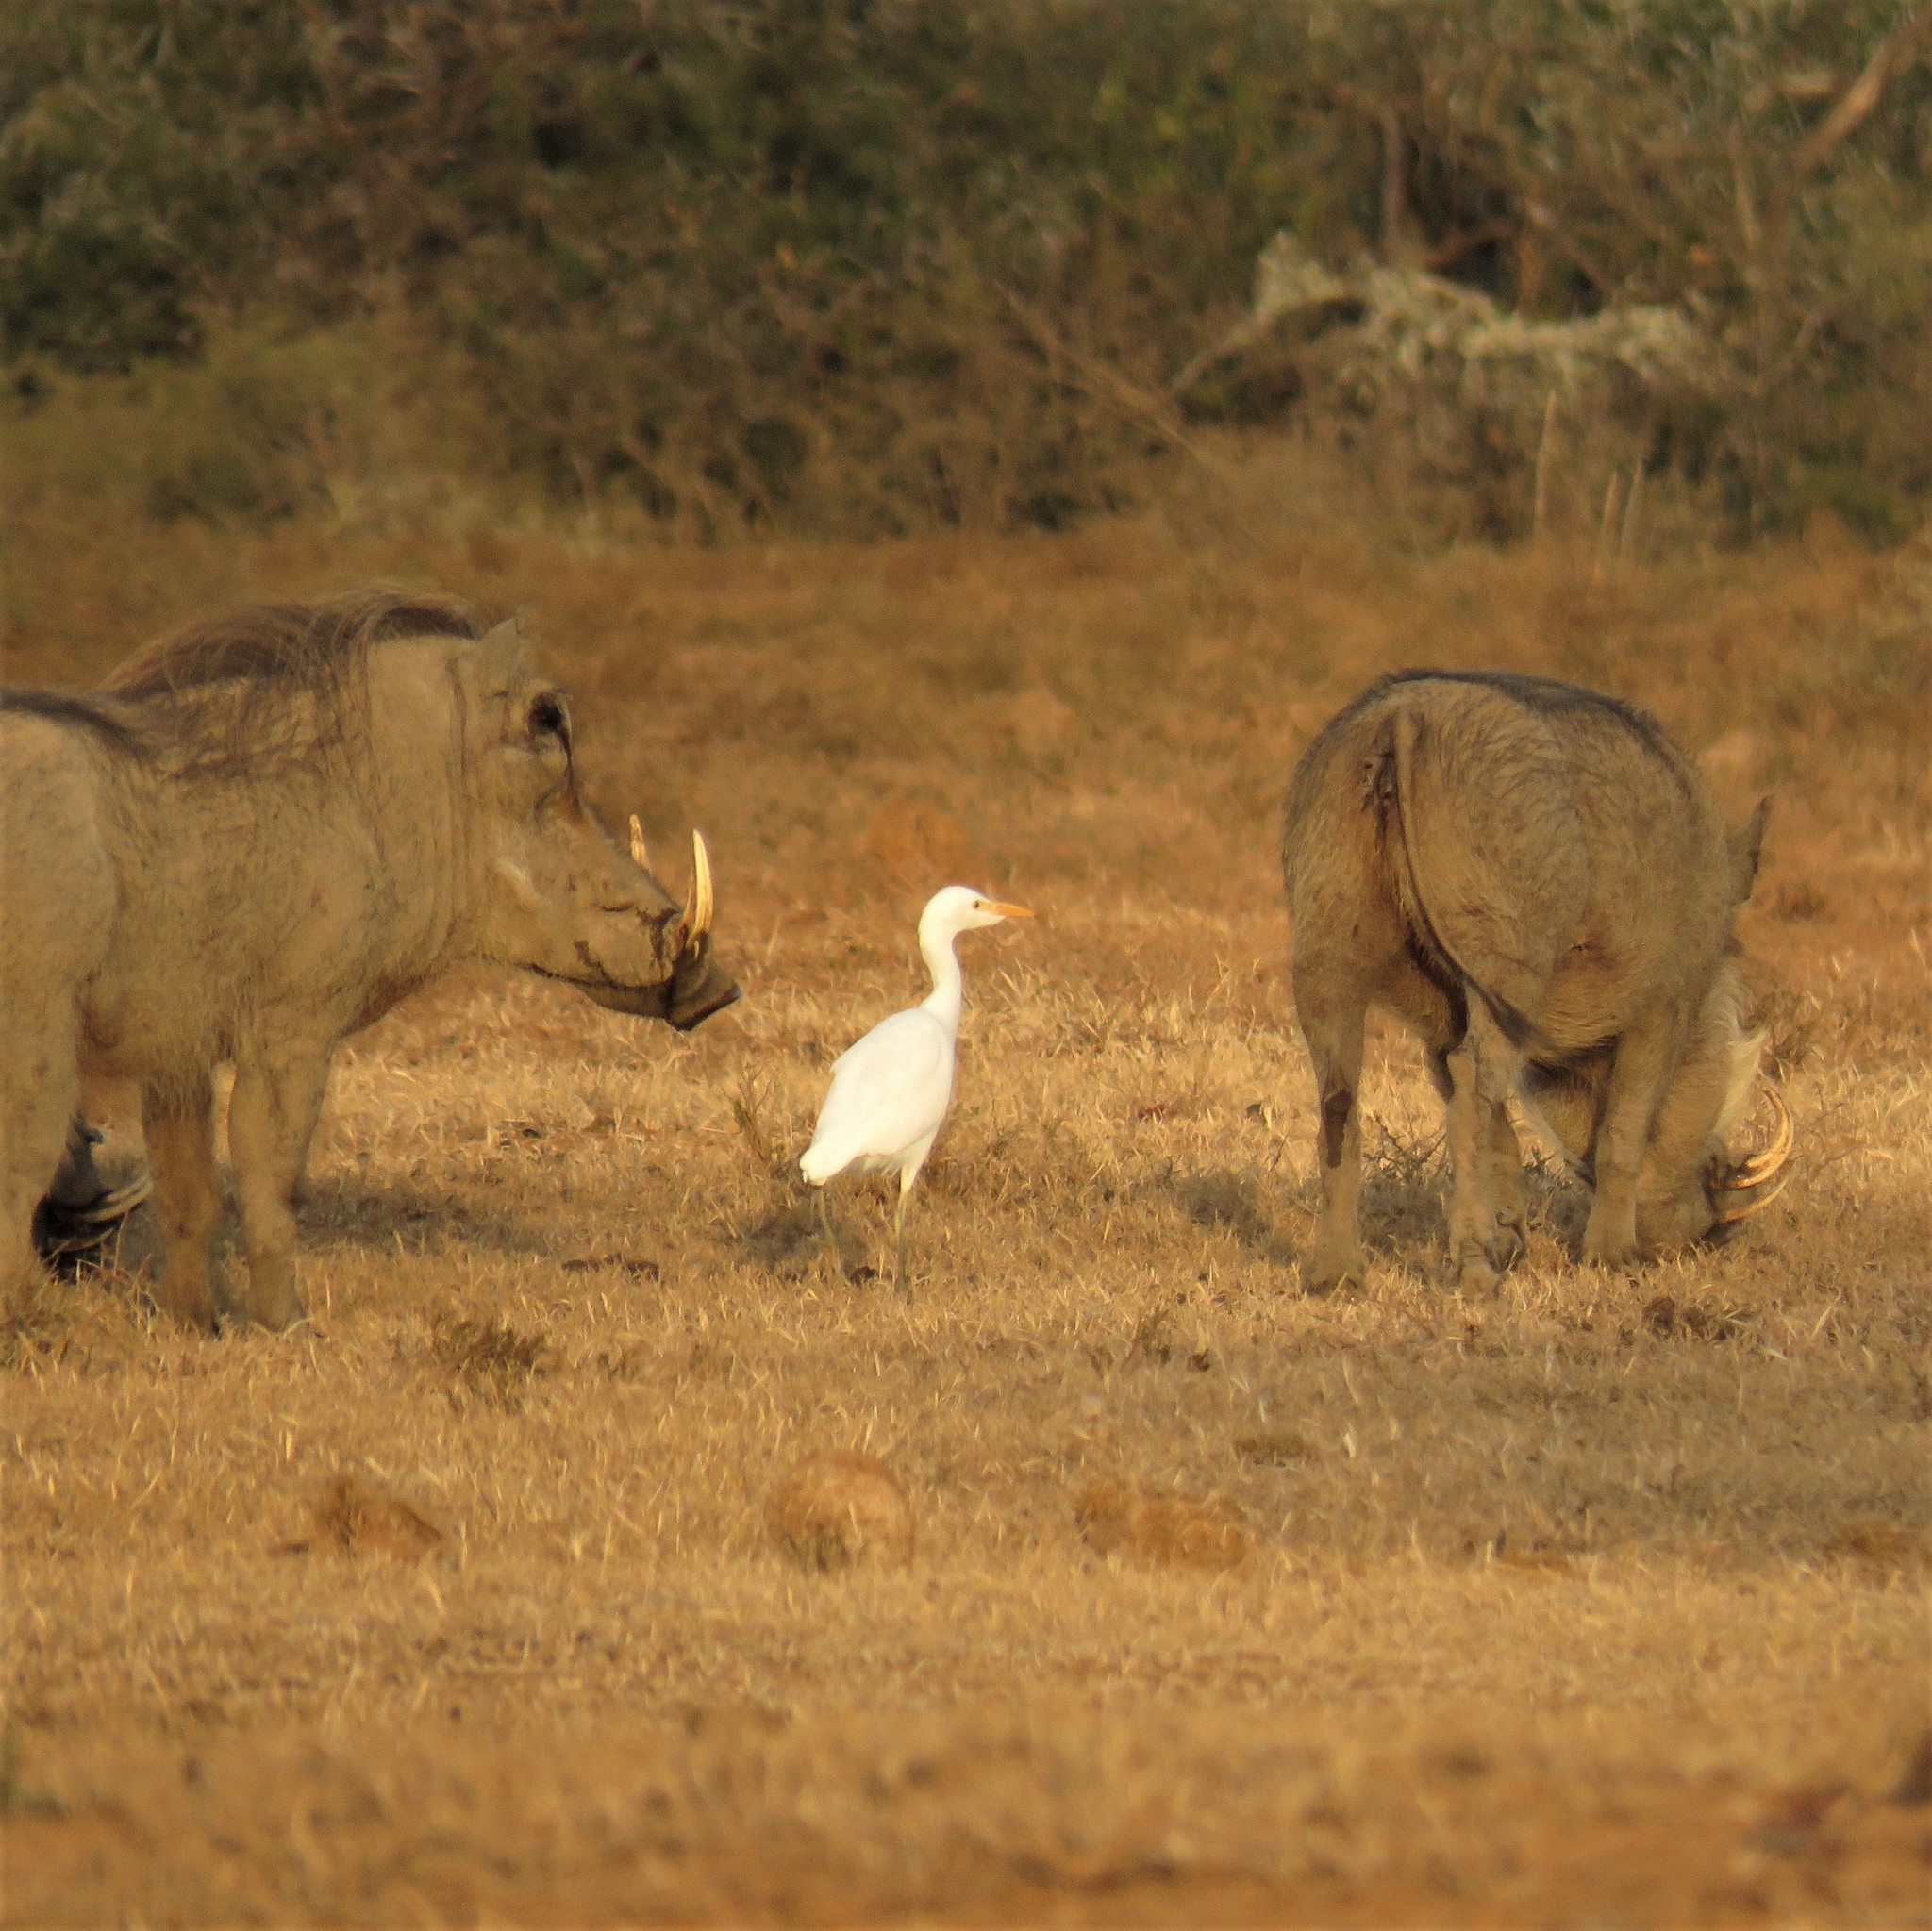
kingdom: Animalia
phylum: Chordata
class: Aves
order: Pelecaniformes
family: Ardeidae
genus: Bubulcus
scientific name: Bubulcus ibis
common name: Cattle egret
